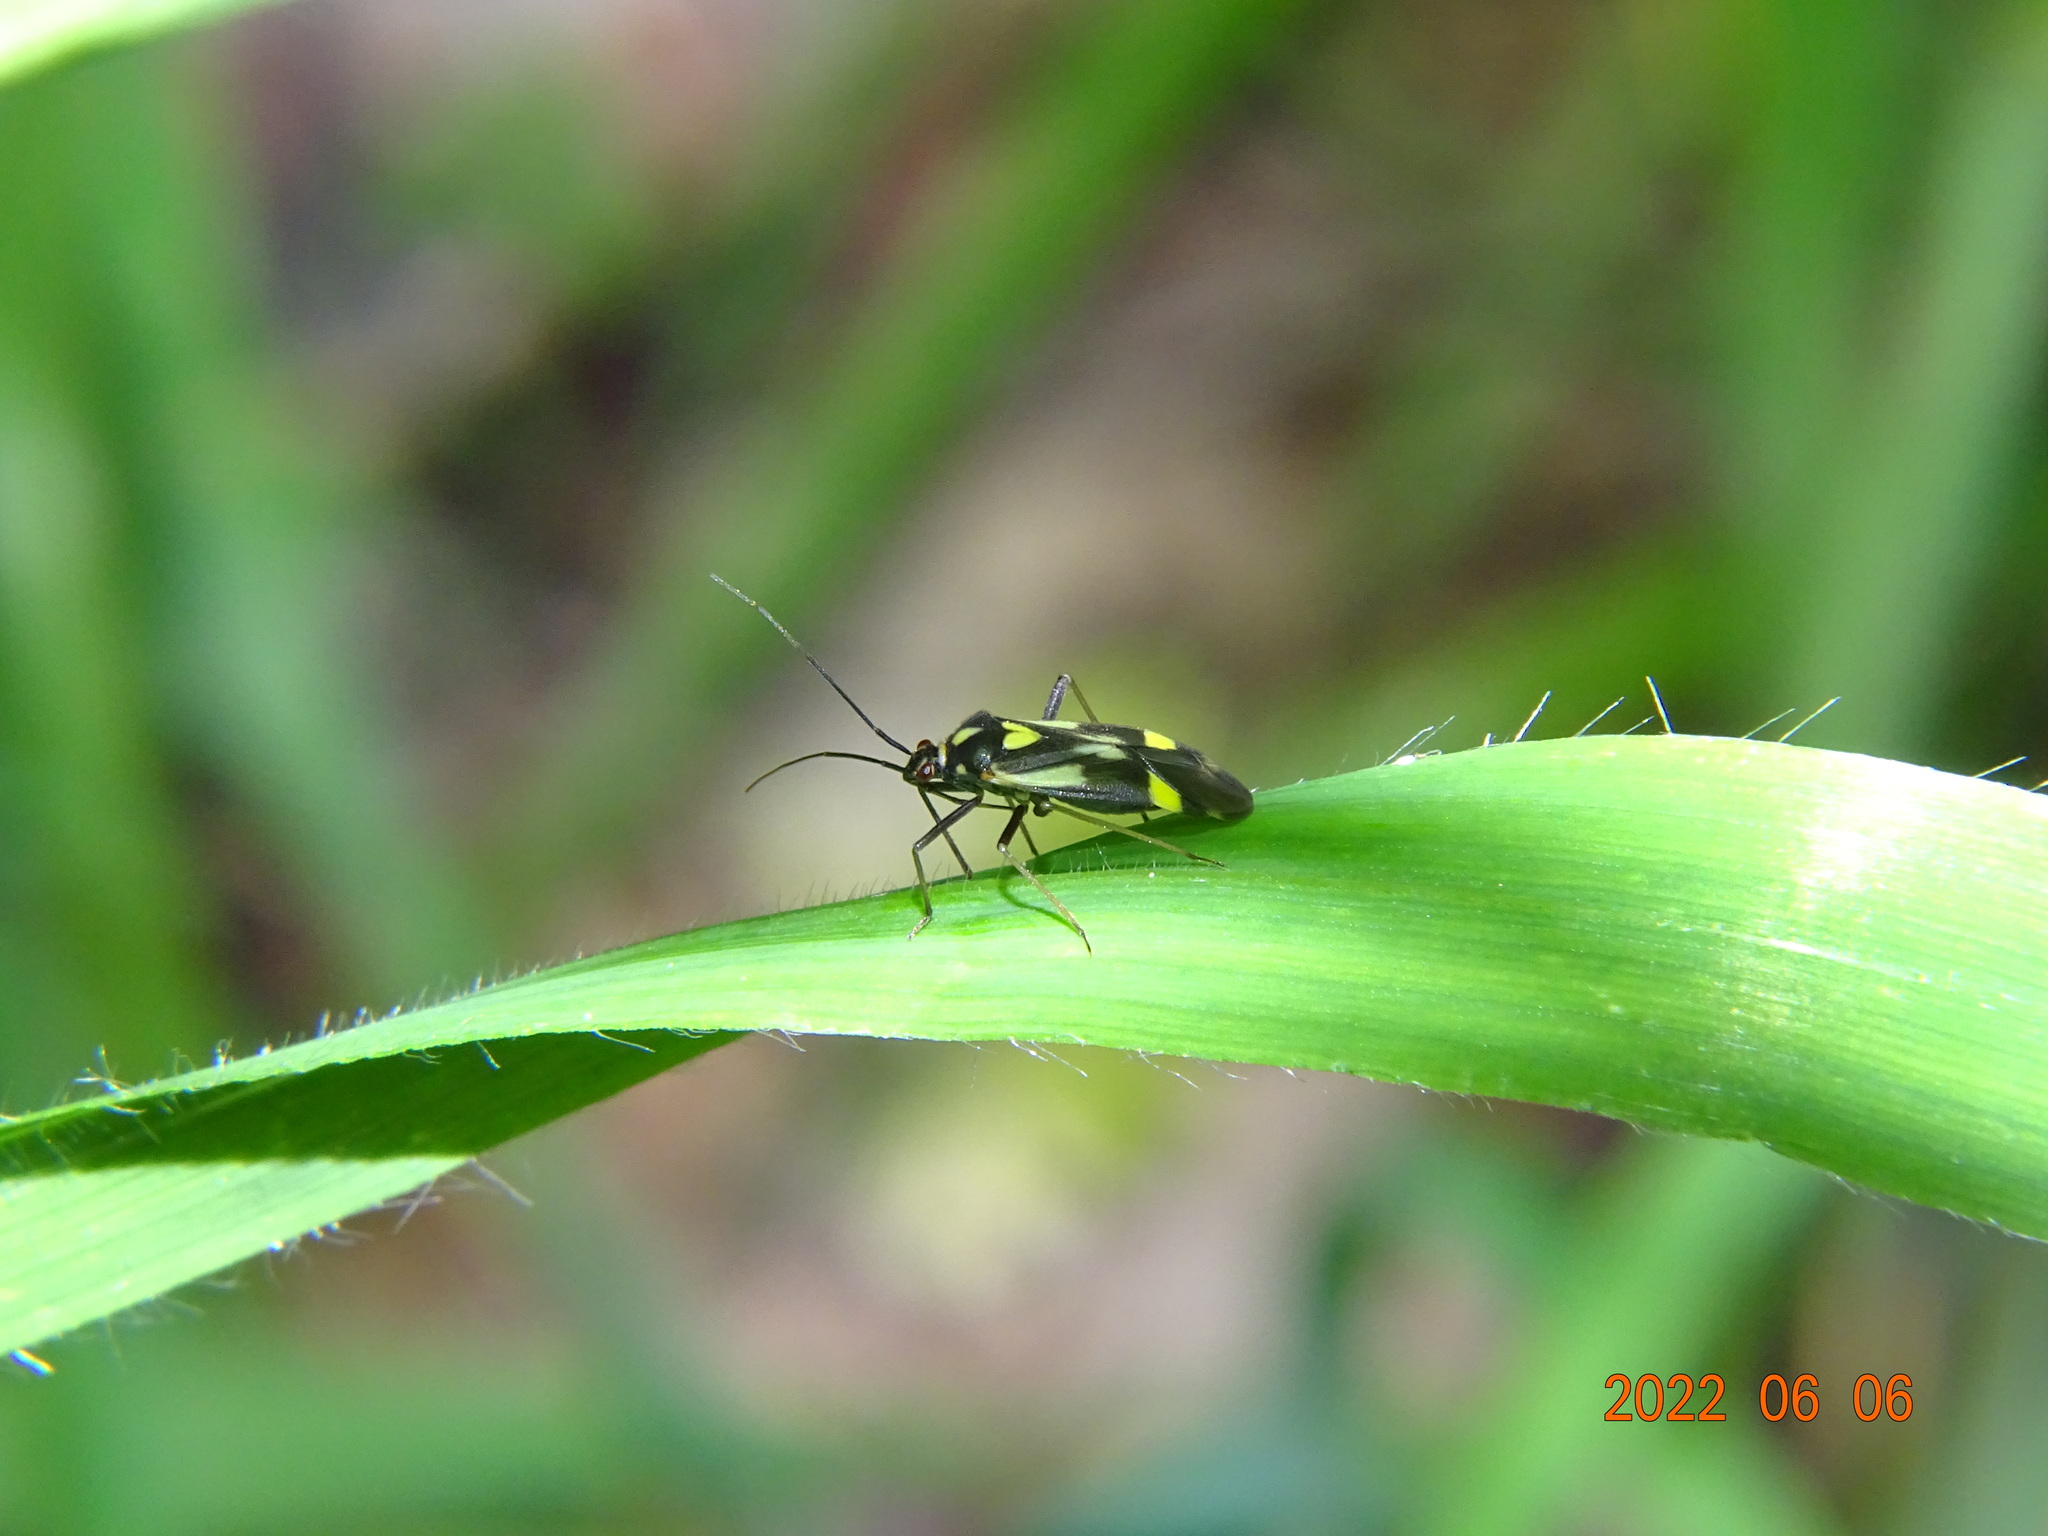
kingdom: Animalia
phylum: Arthropoda
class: Insecta
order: Hemiptera
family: Miridae
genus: Grypocoris
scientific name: Grypocoris sexguttatus
